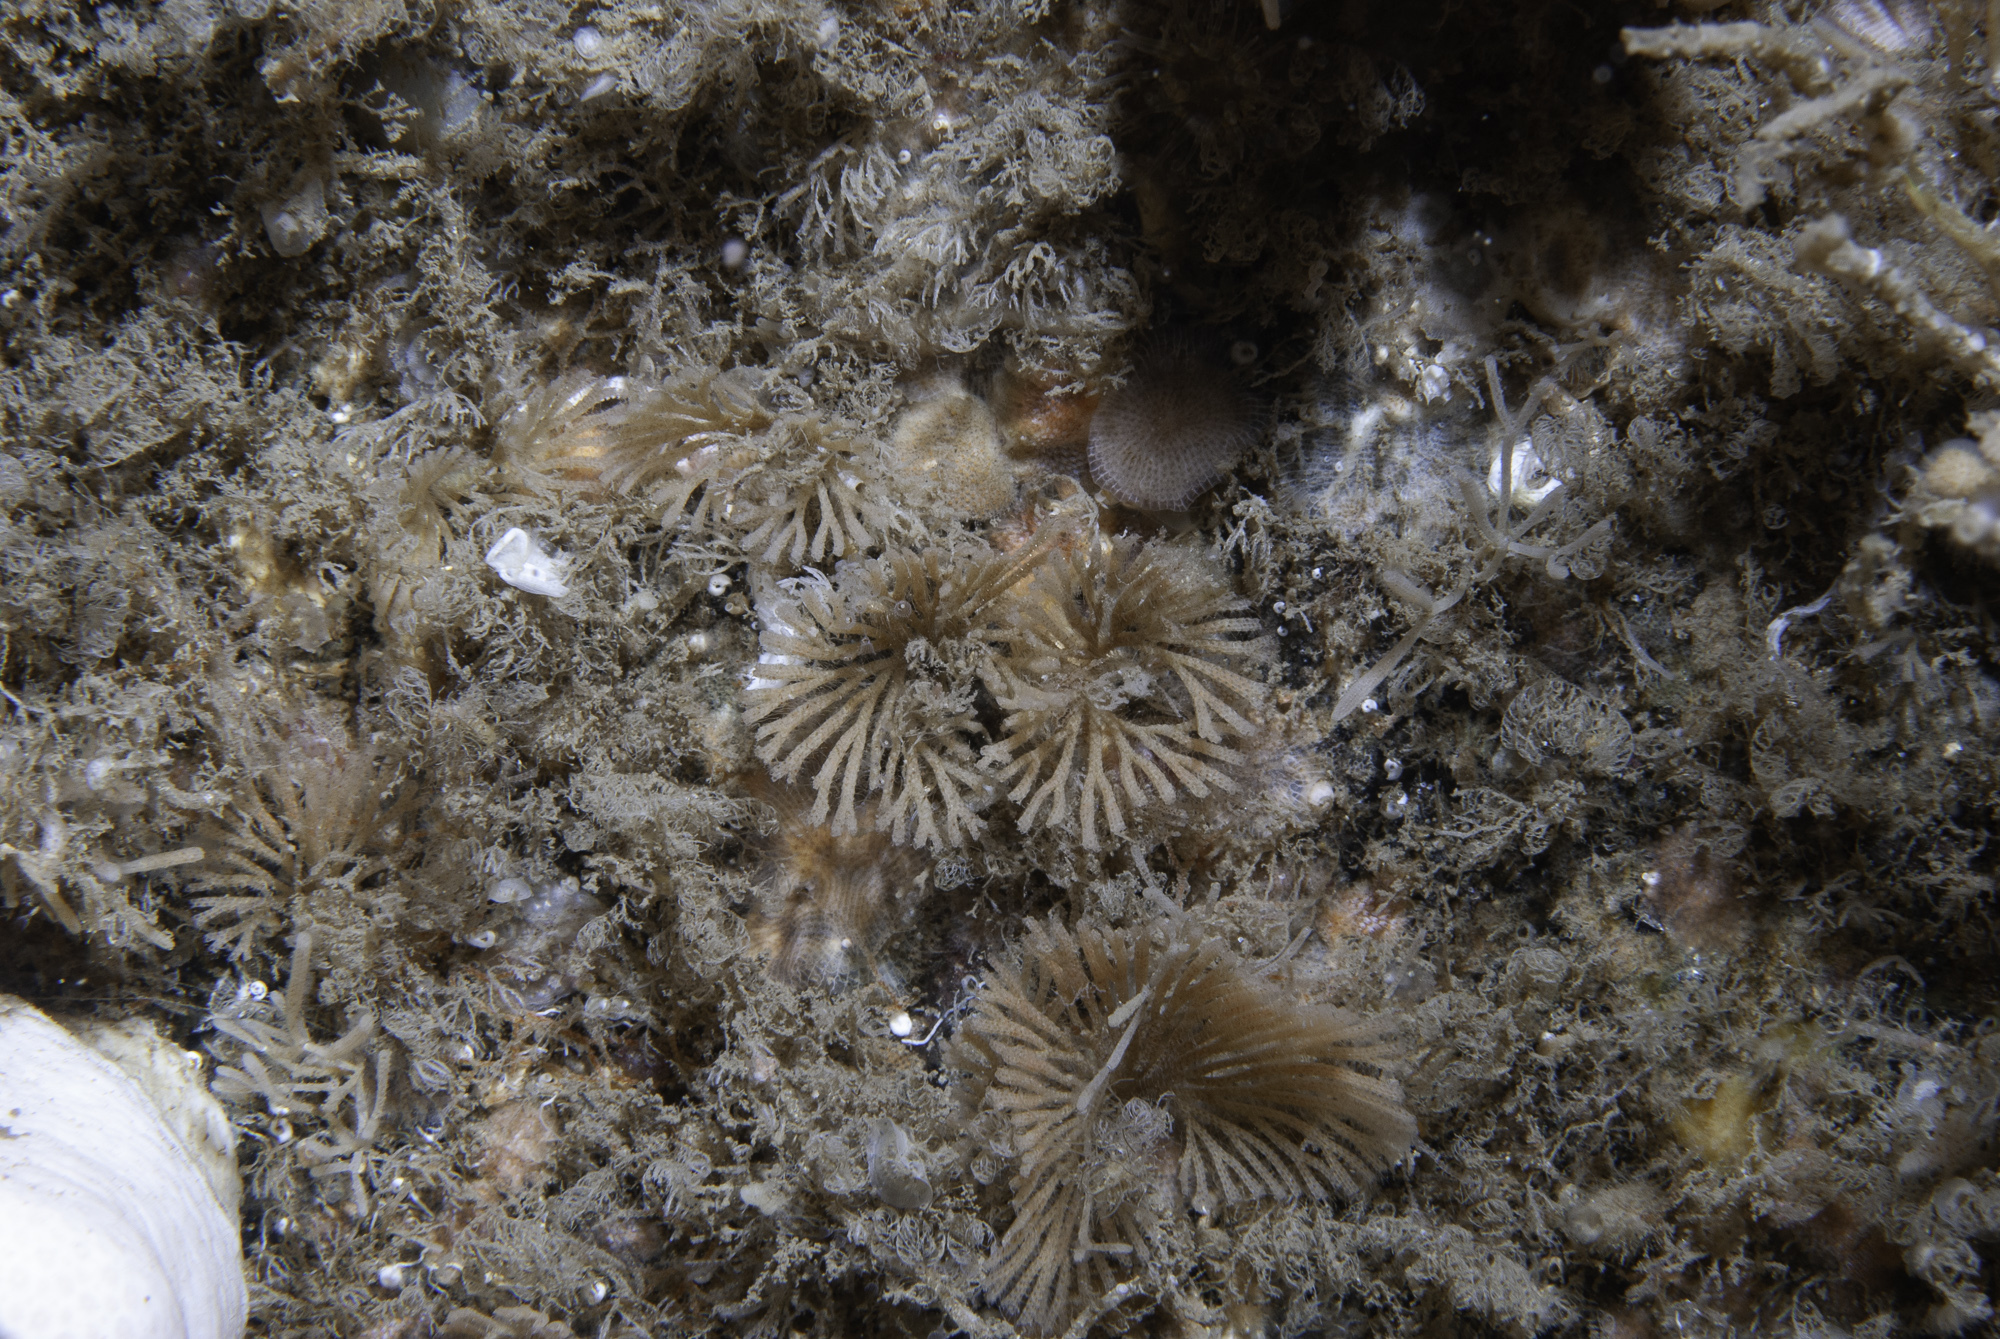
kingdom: Animalia
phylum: Bryozoa
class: Gymnolaemata
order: Cheilostomatida
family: Candidae
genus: Caberea
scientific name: Caberea ellisii
